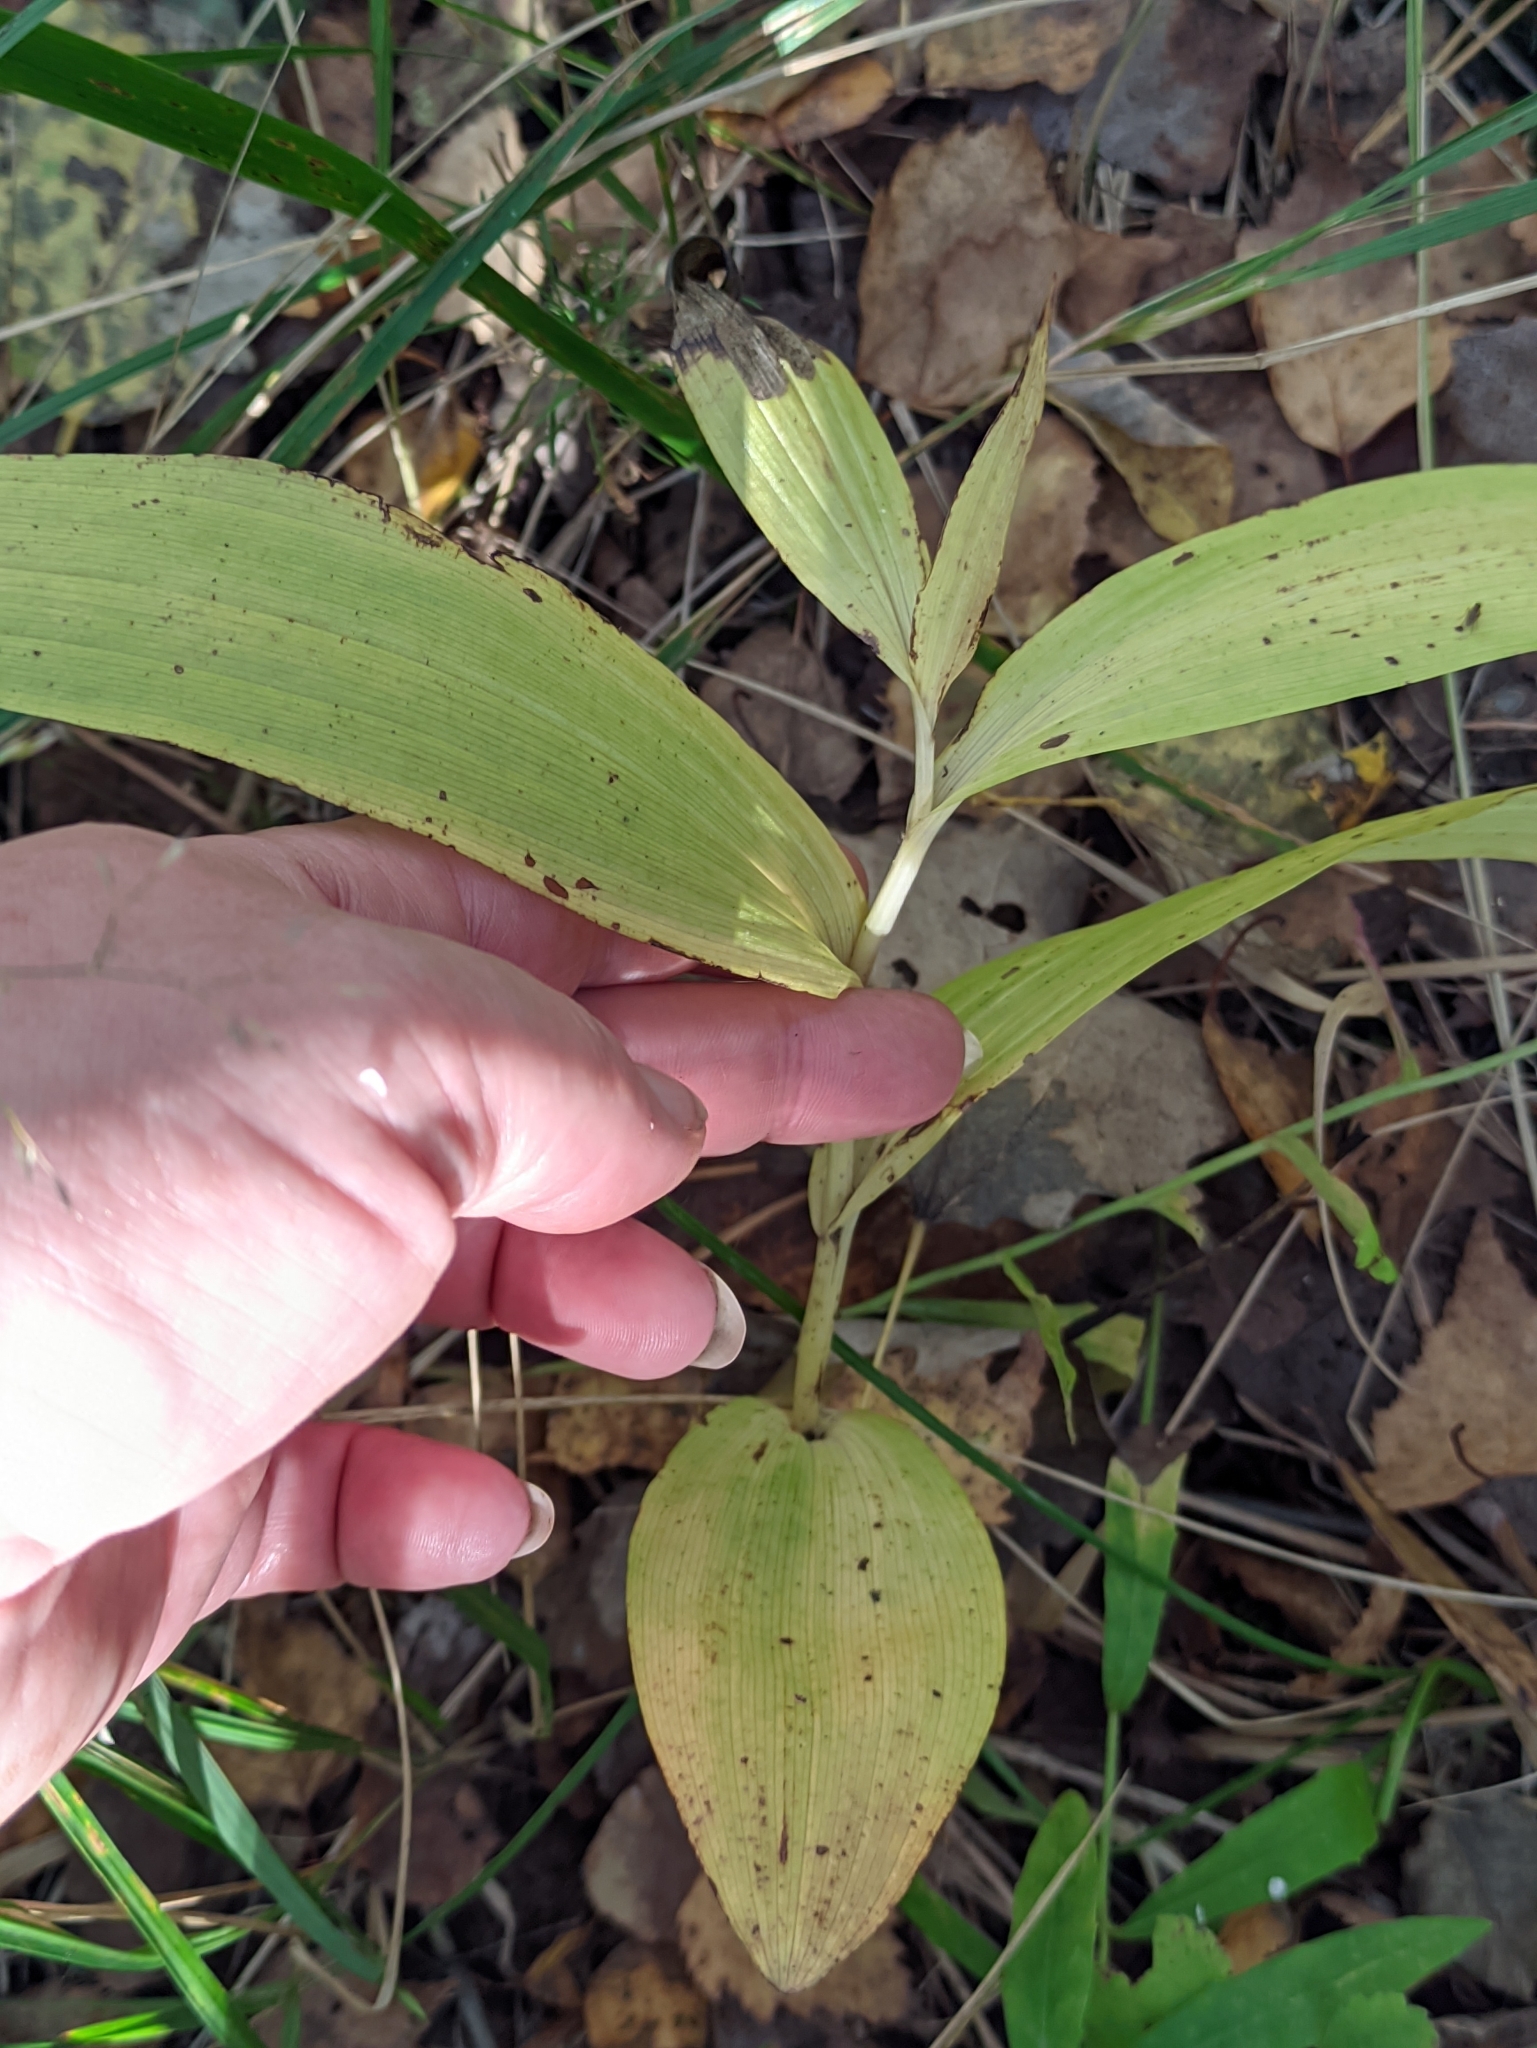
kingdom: Plantae
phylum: Tracheophyta
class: Liliopsida
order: Asparagales
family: Orchidaceae
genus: Epipactis
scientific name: Epipactis helleborine
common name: Broad-leaved helleborine
